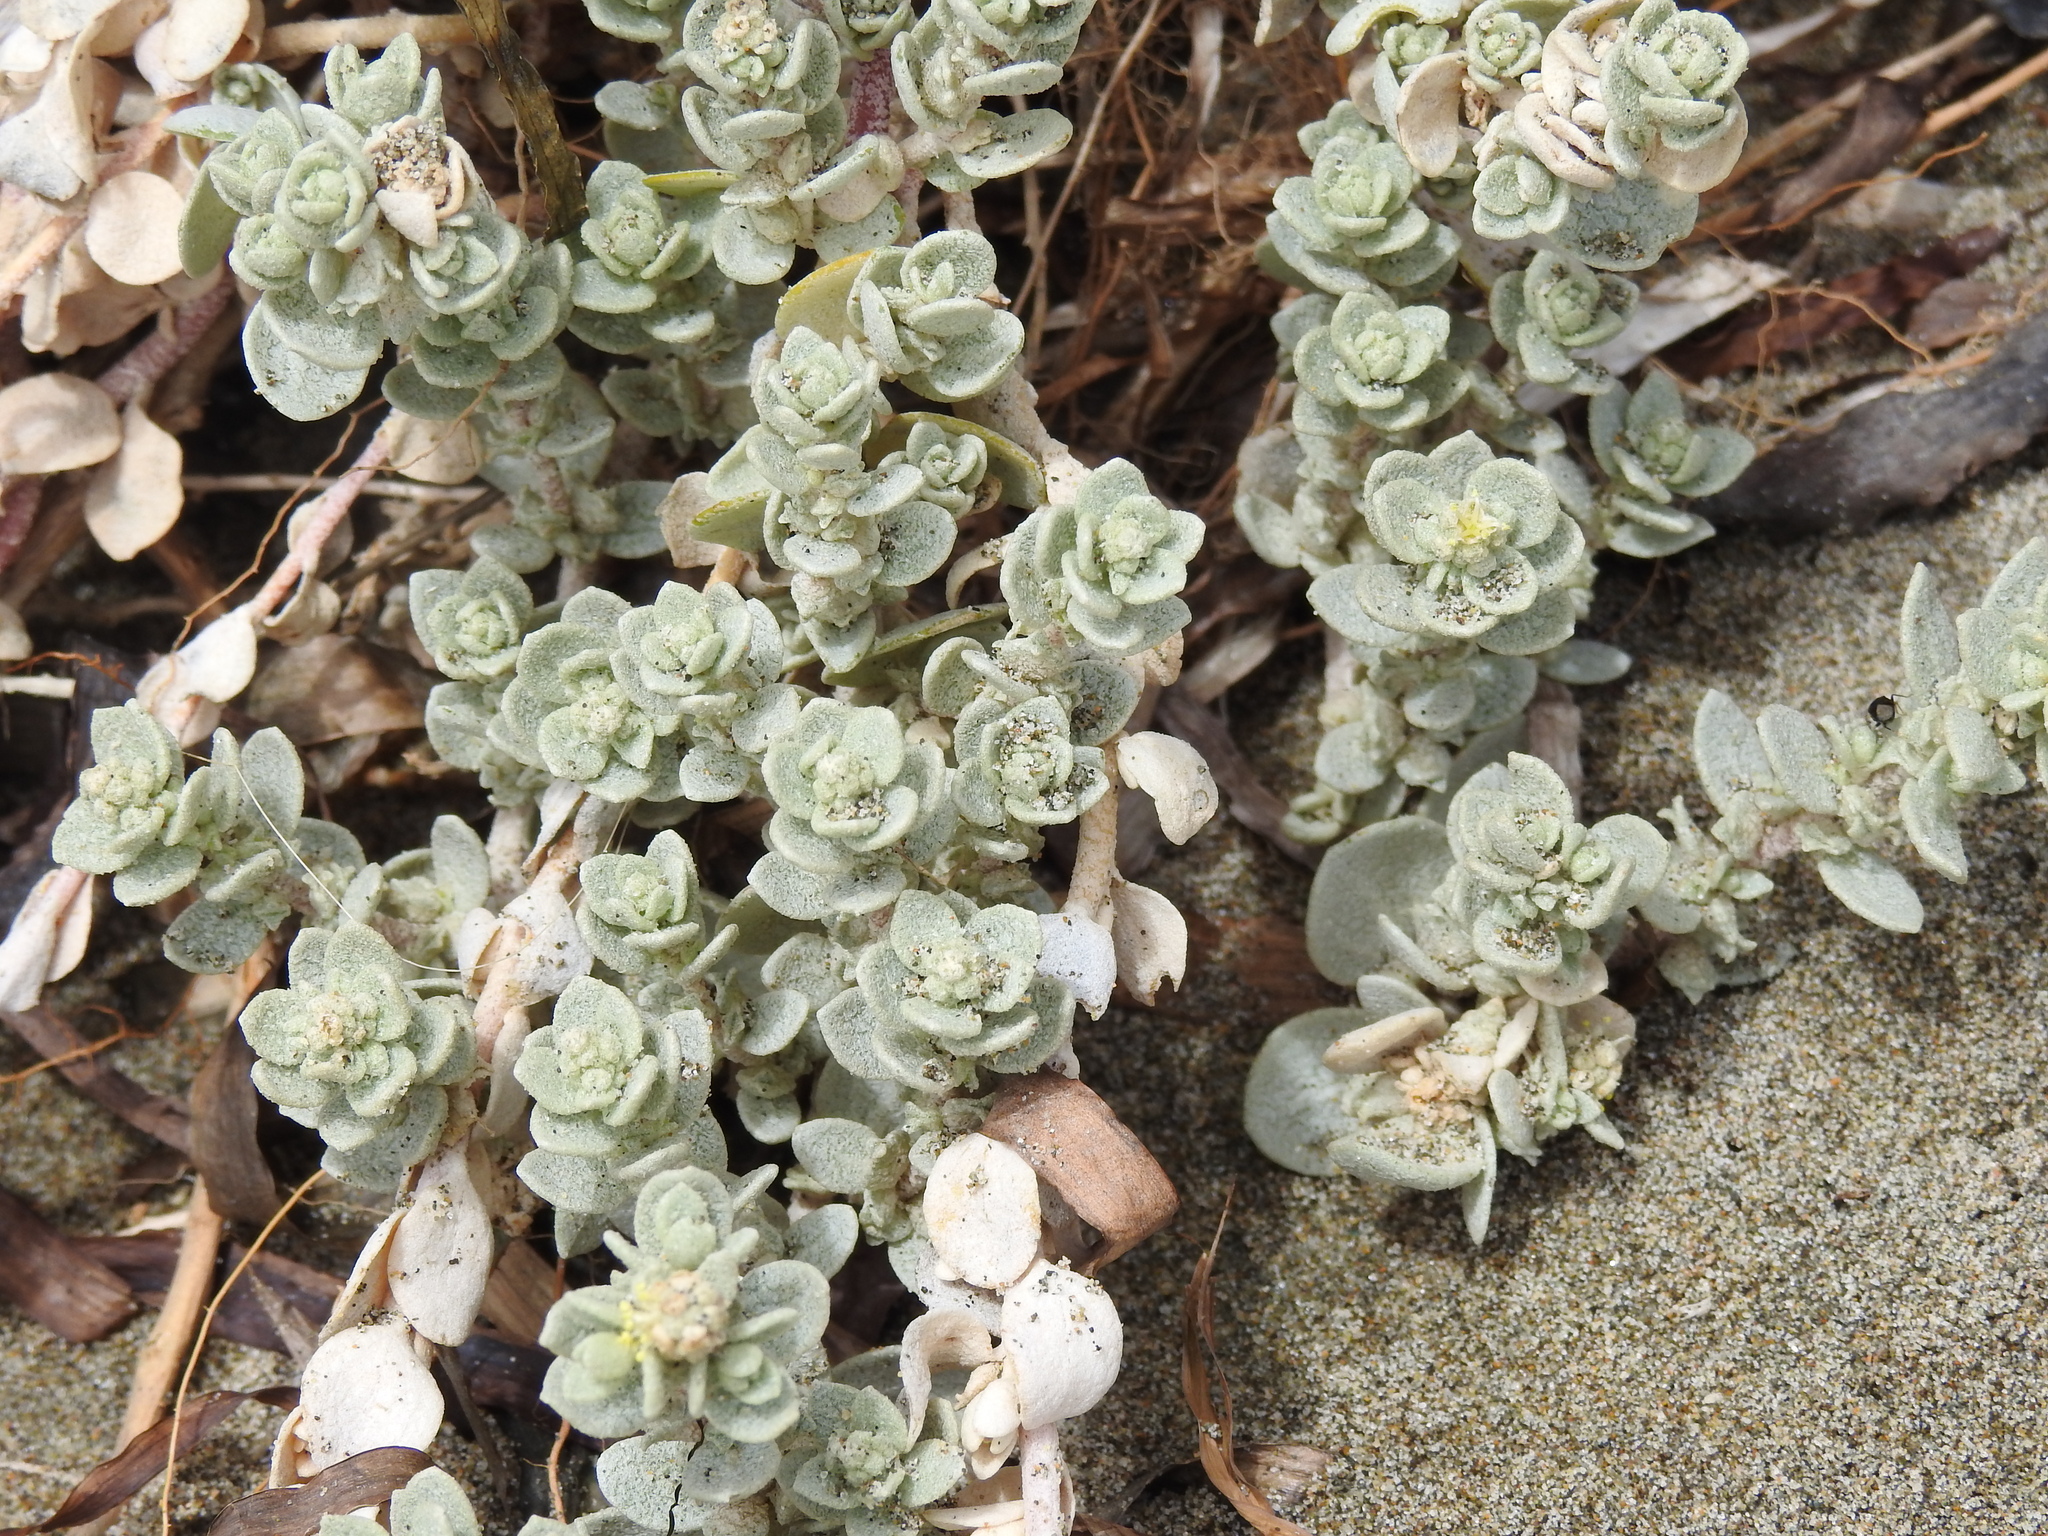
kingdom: Plantae
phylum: Tracheophyta
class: Magnoliopsida
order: Caryophyllales
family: Amaranthaceae
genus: Atriplex
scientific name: Atriplex leucophylla
